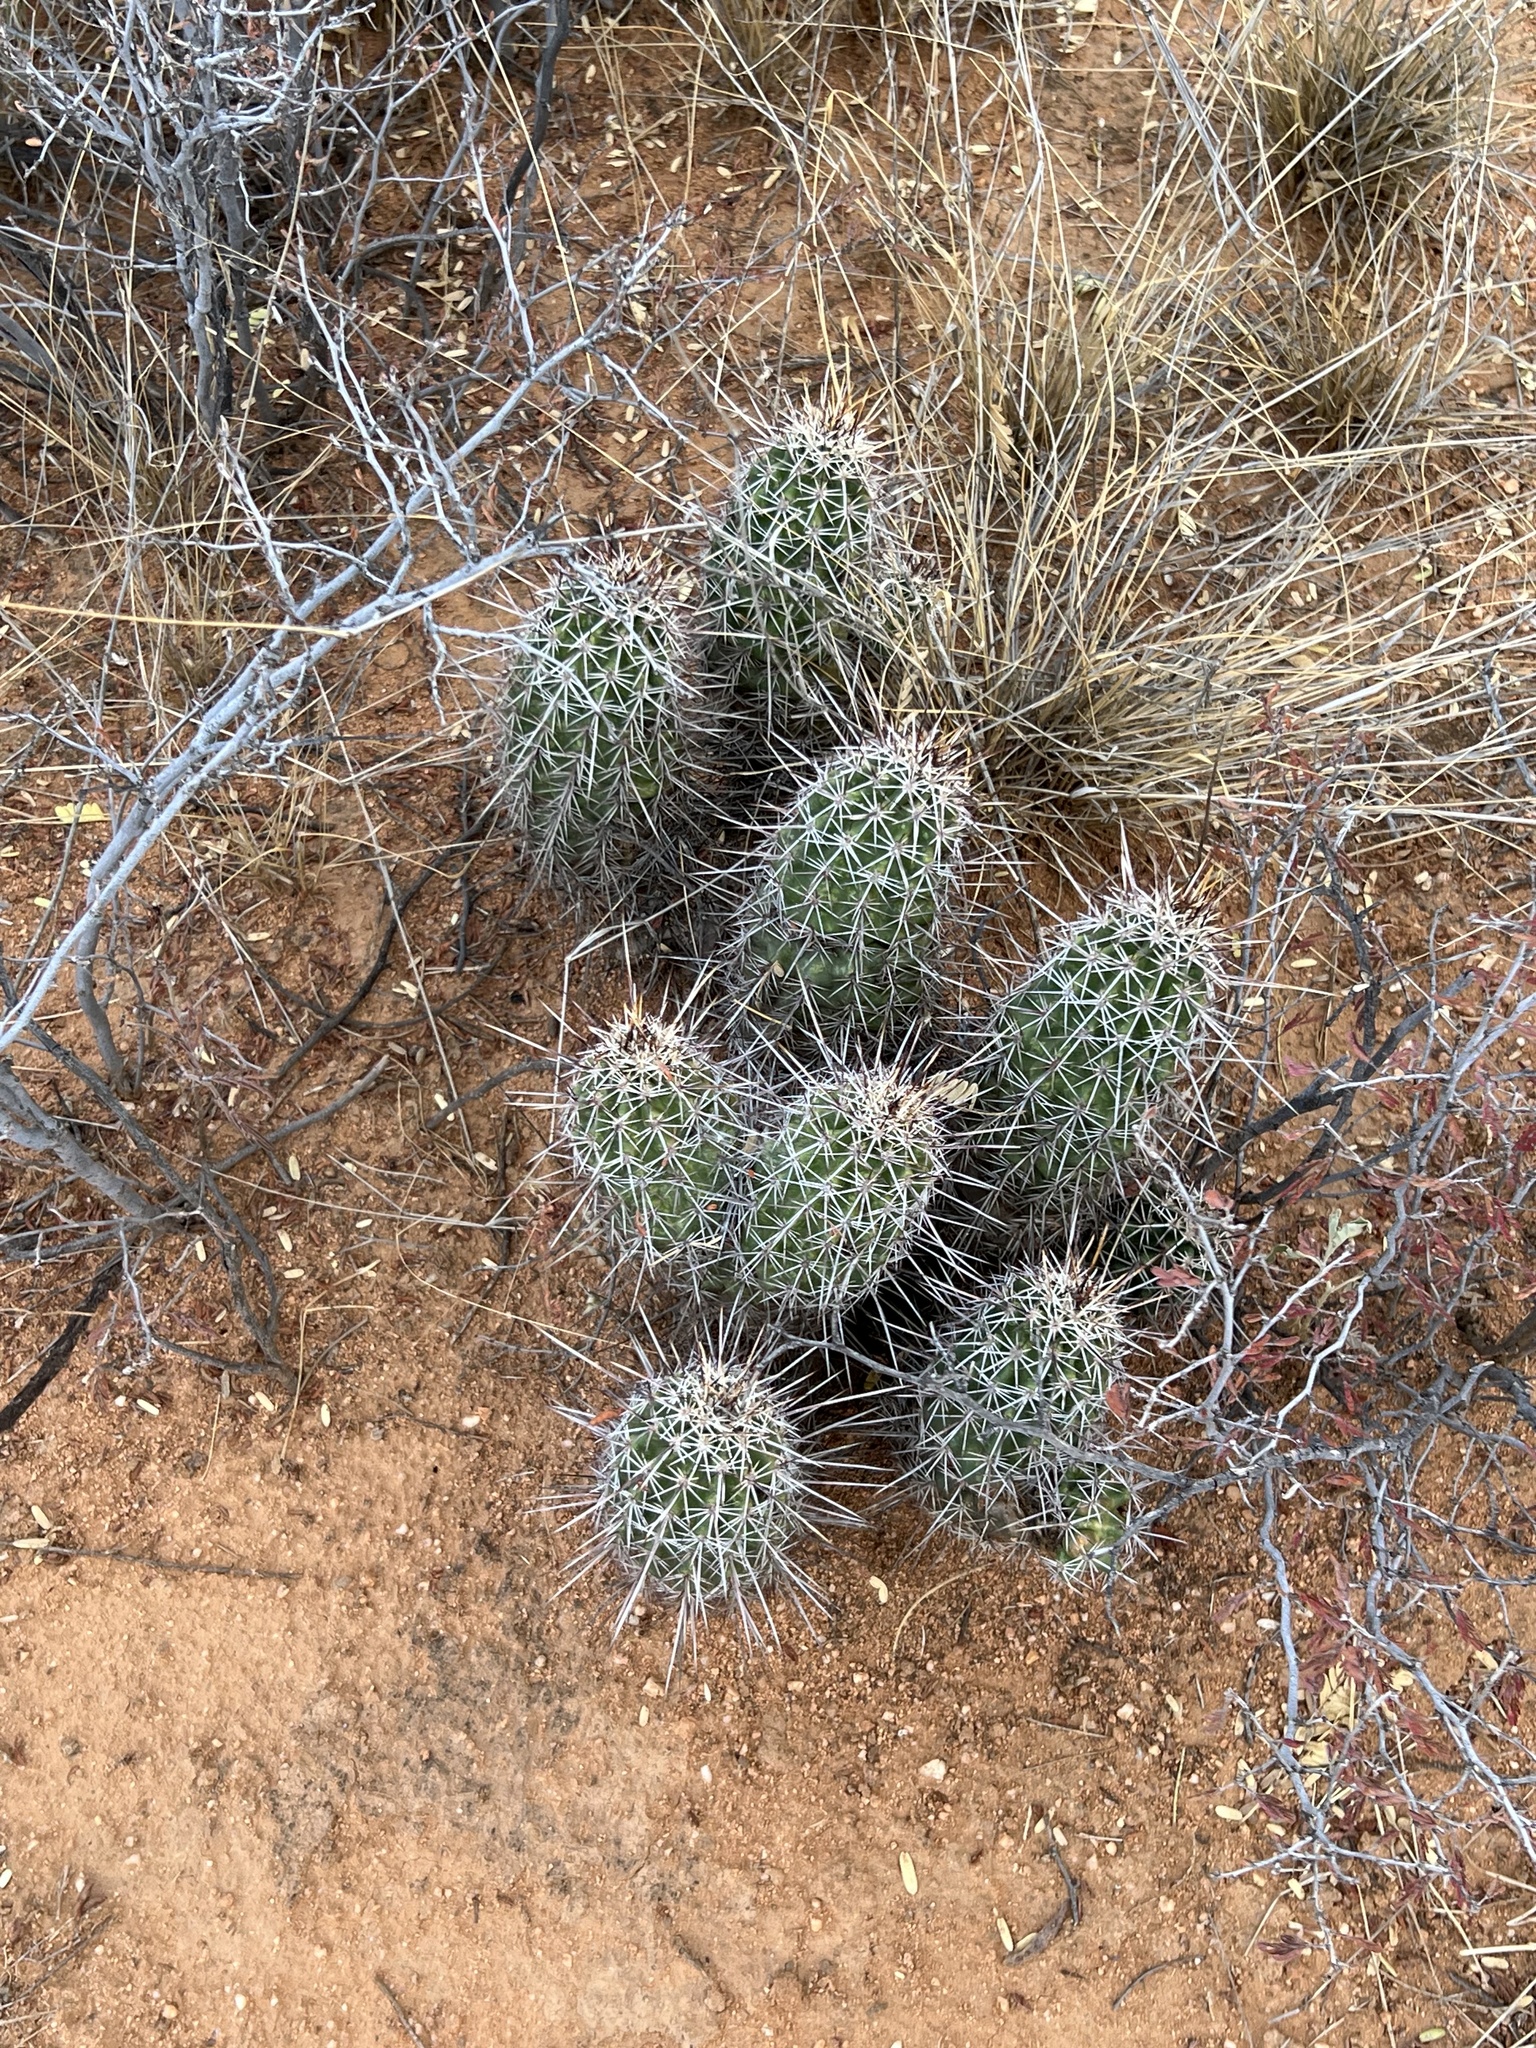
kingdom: Plantae
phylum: Tracheophyta
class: Magnoliopsida
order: Caryophyllales
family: Cactaceae
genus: Echinocereus
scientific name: Echinocereus fasciculatus
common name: Bundle hedgehog
